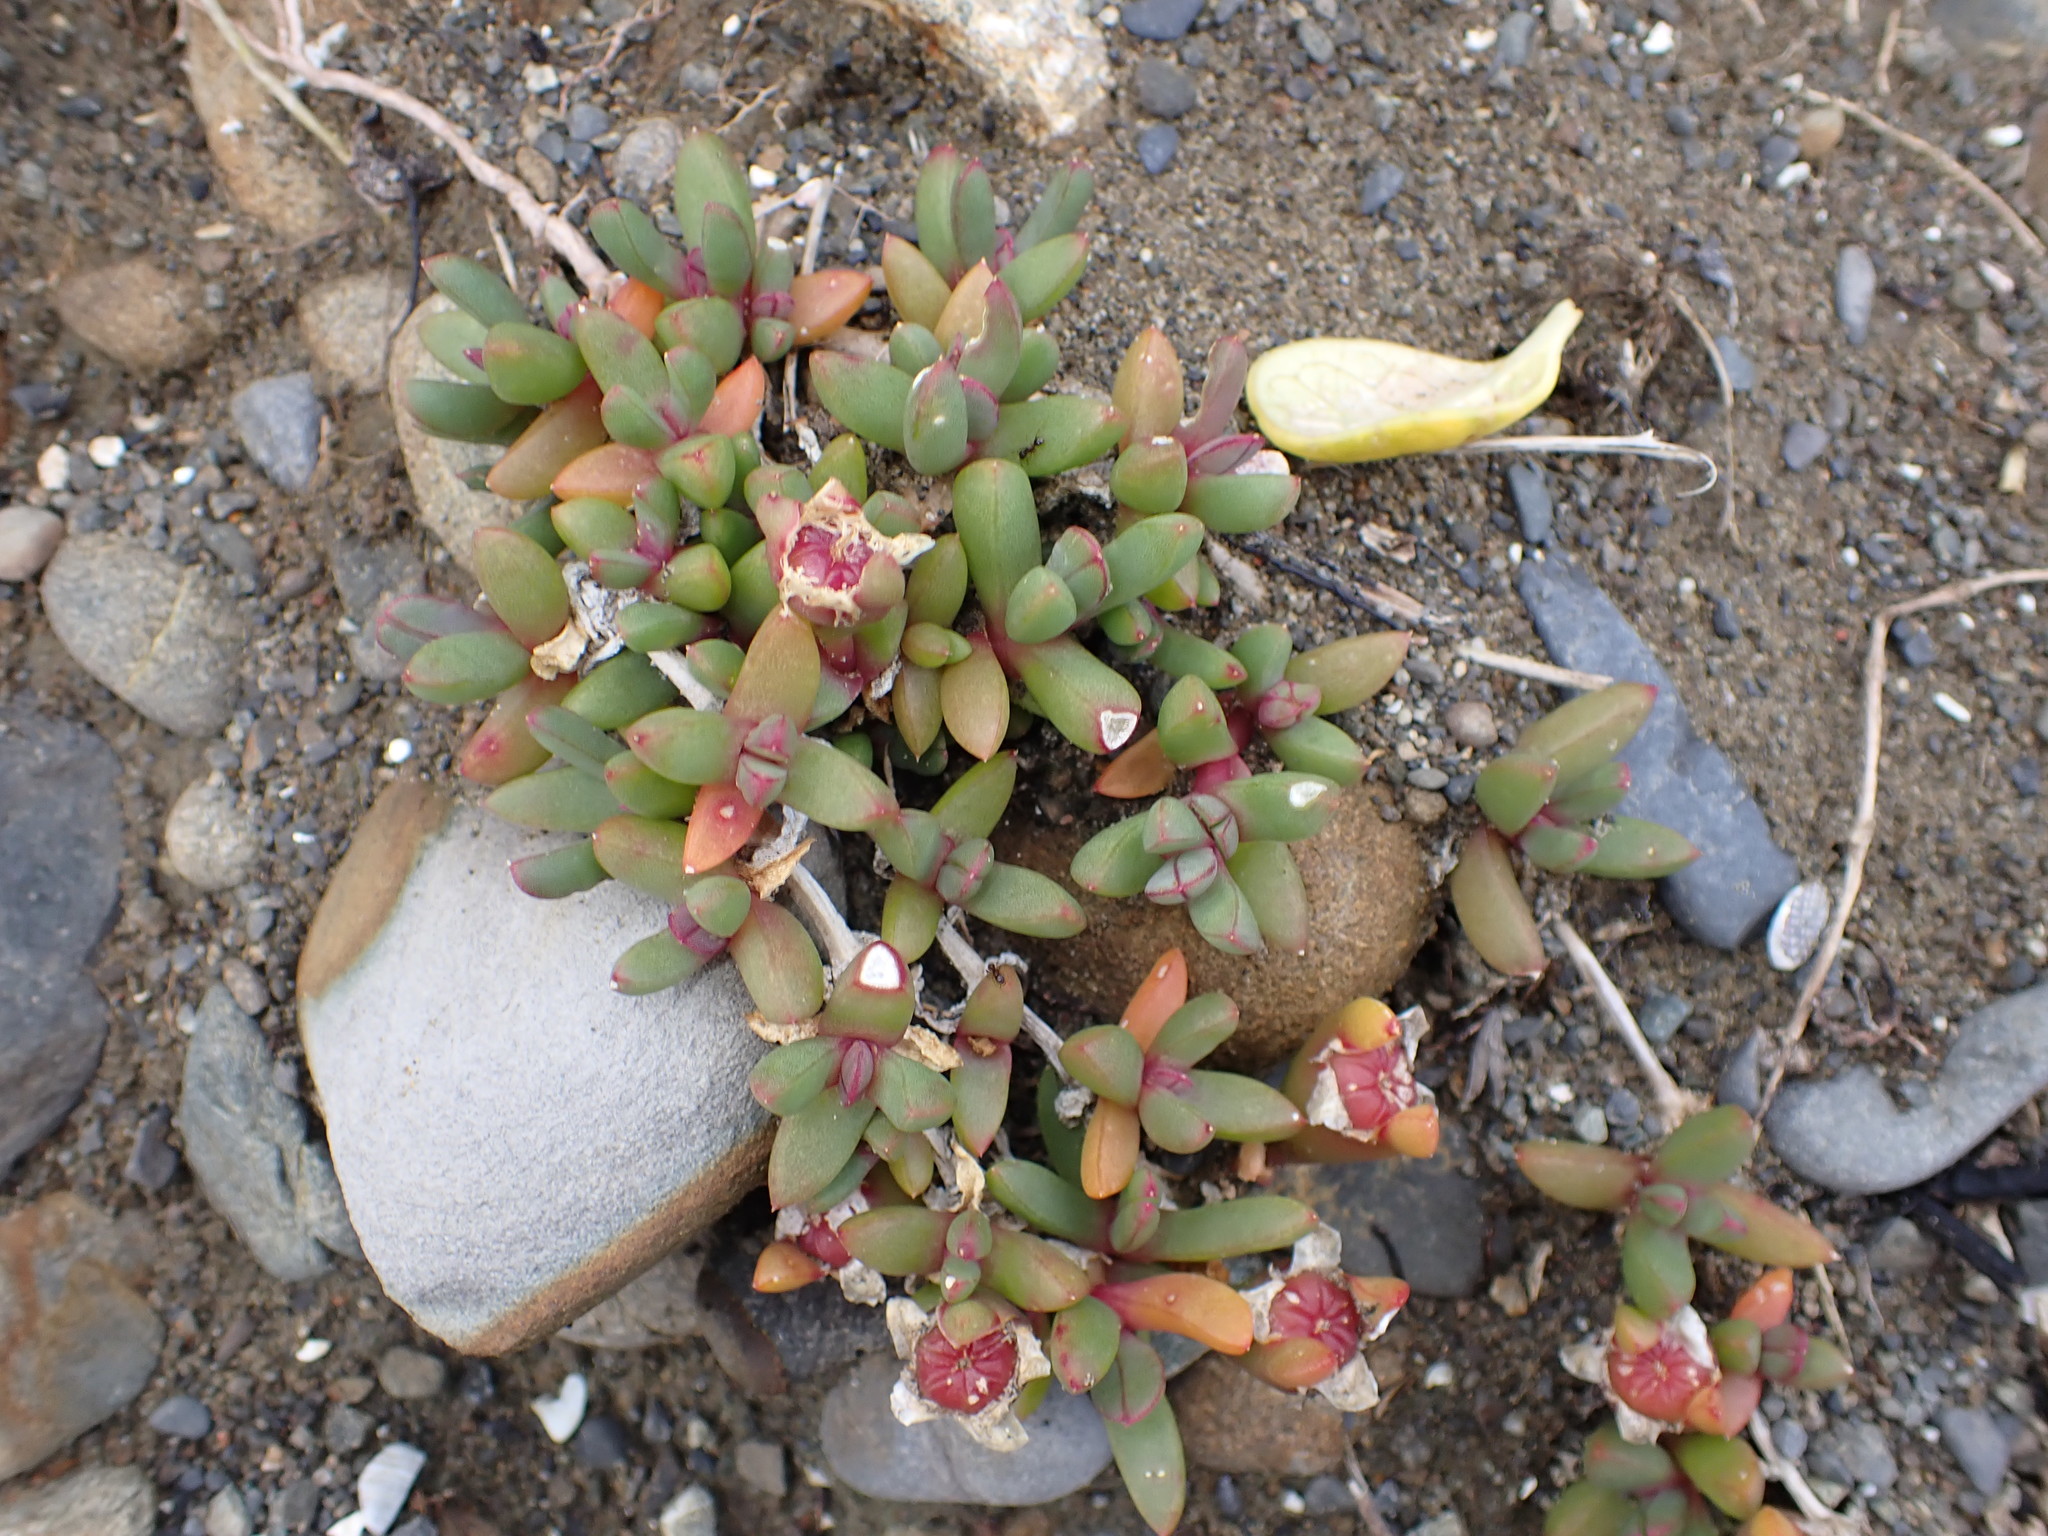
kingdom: Plantae
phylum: Tracheophyta
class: Magnoliopsida
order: Caryophyllales
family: Aizoaceae
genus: Disphyma
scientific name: Disphyma australe
